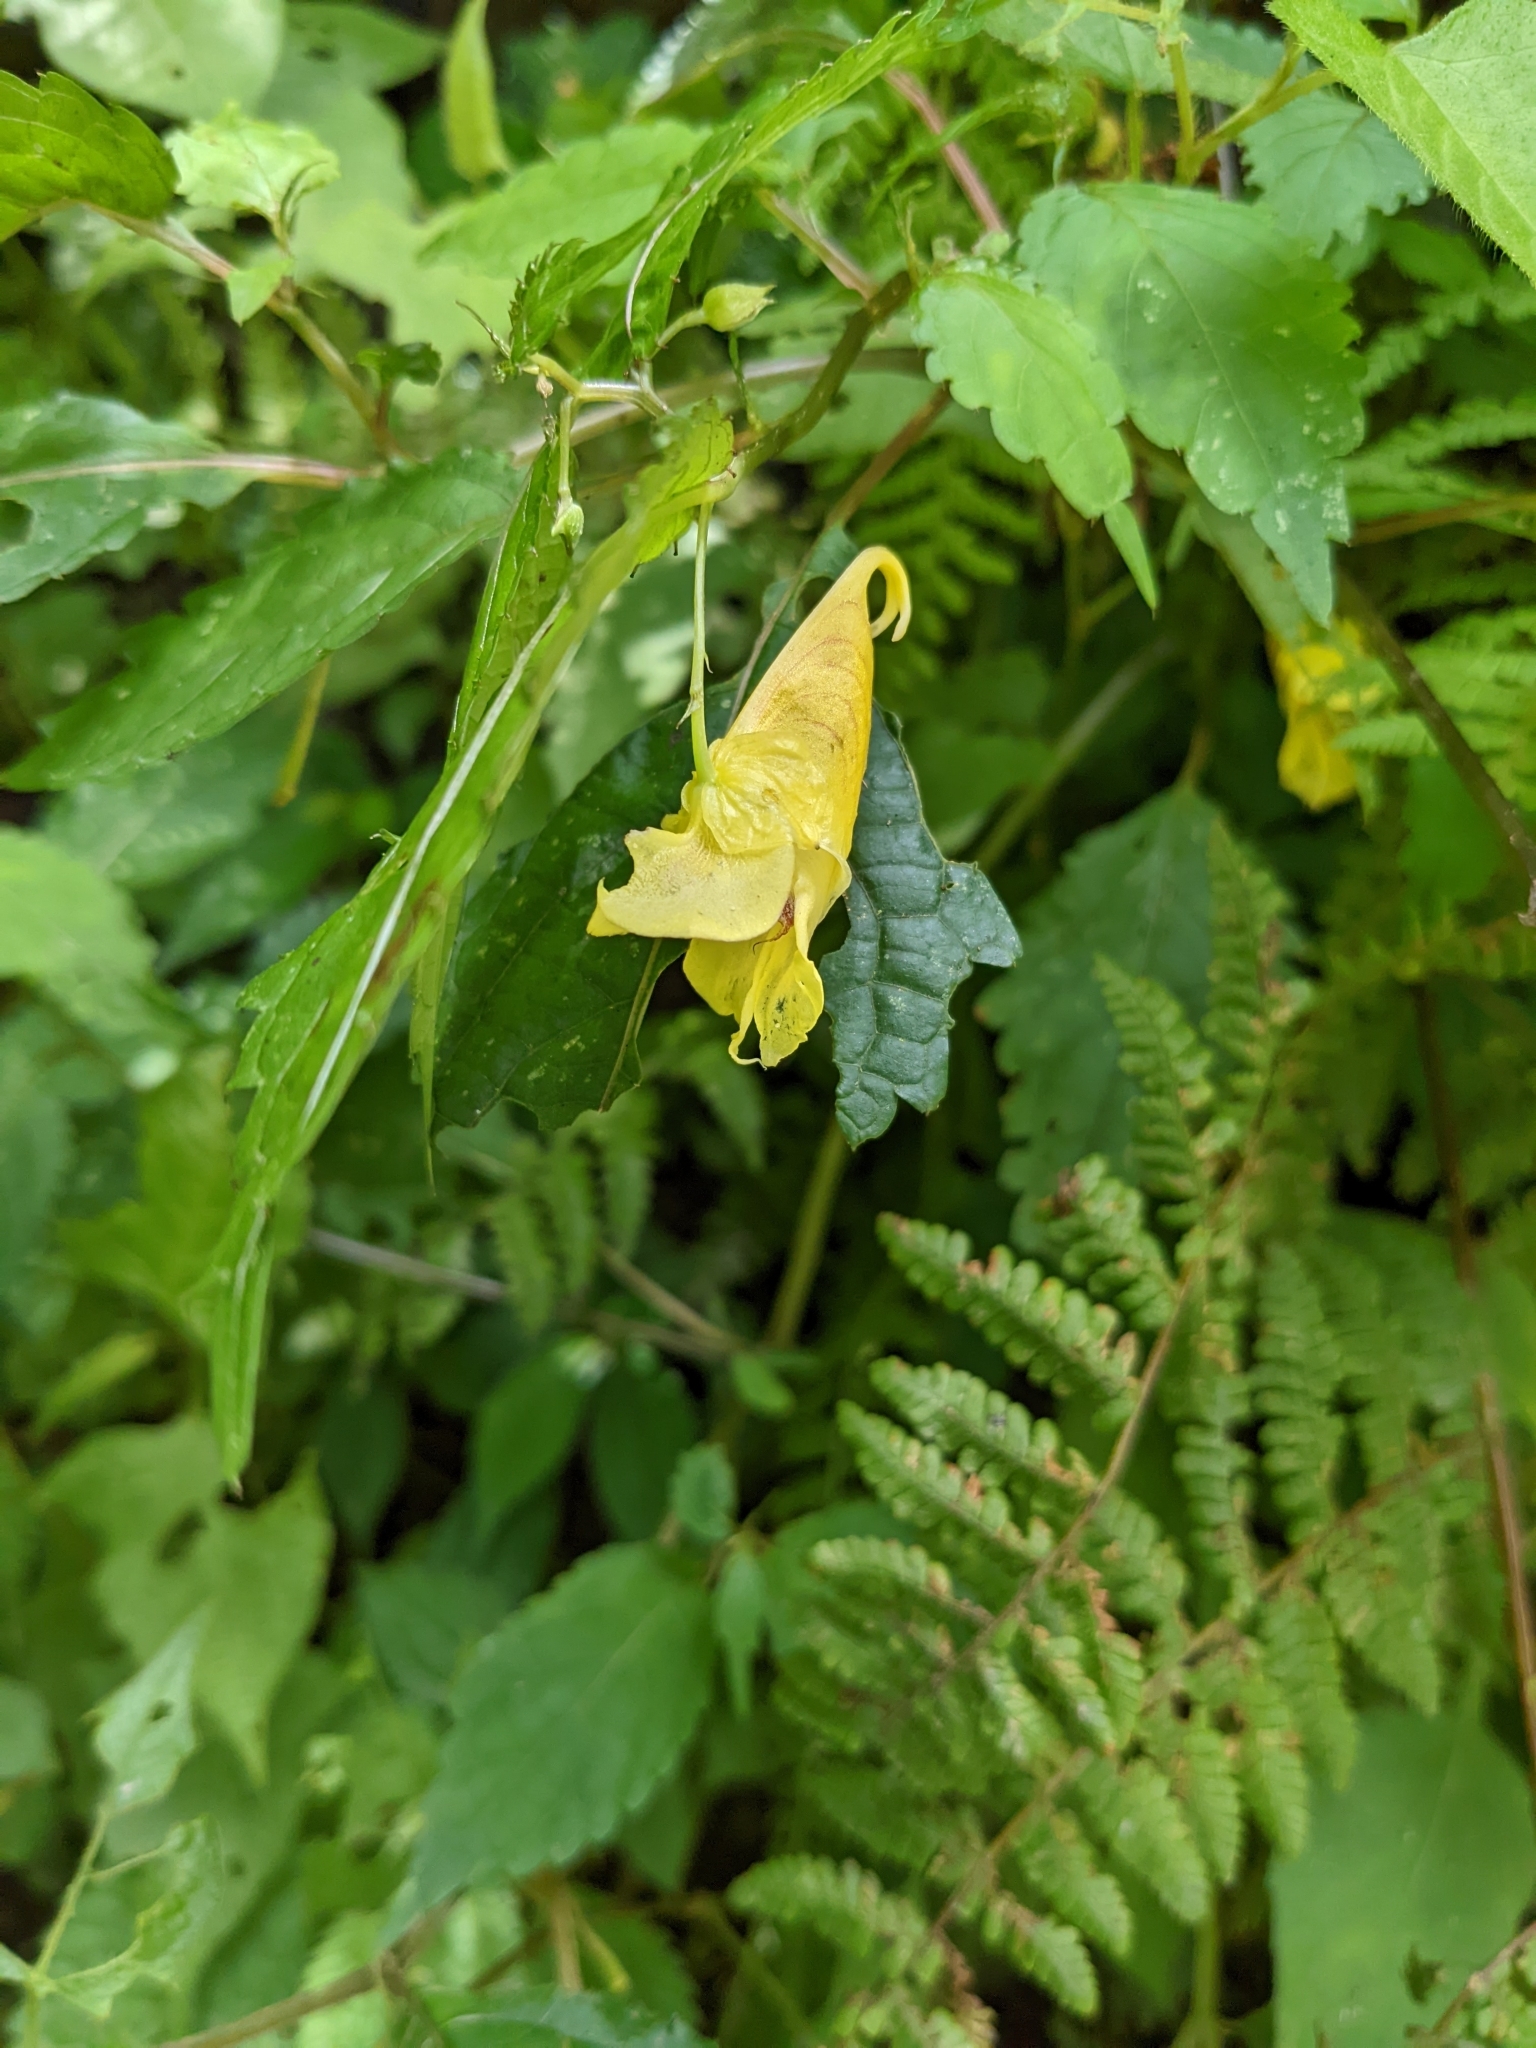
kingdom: Plantae
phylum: Tracheophyta
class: Magnoliopsida
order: Ericales
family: Balsaminaceae
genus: Impatiens
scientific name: Impatiens tayemonii
